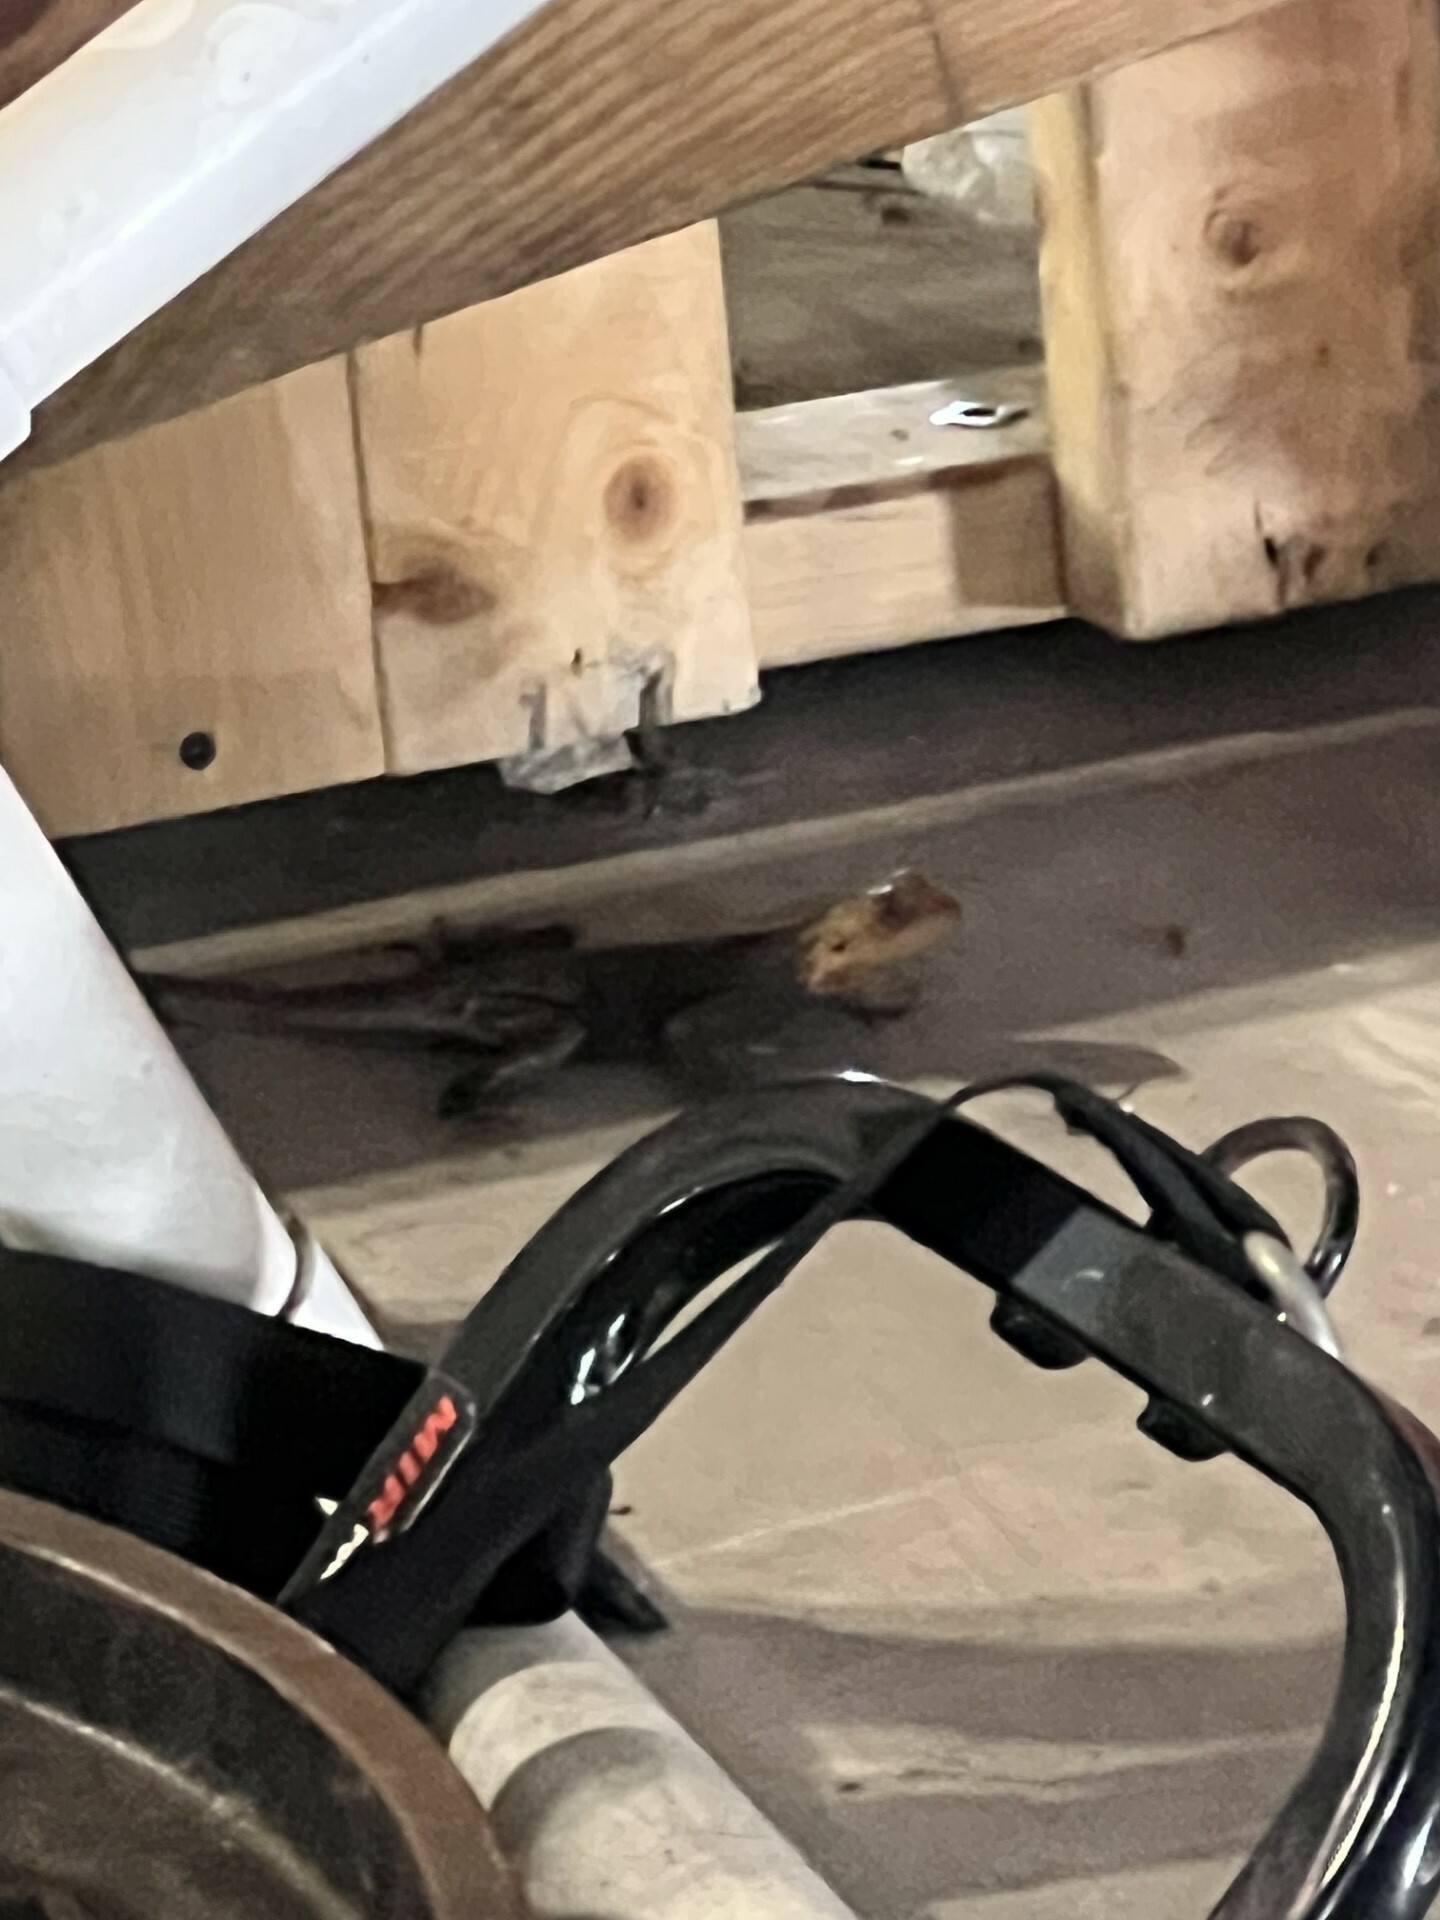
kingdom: Animalia
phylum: Chordata
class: Squamata
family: Agamidae
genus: Agama
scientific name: Agama picticauda
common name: Red-headed agama
